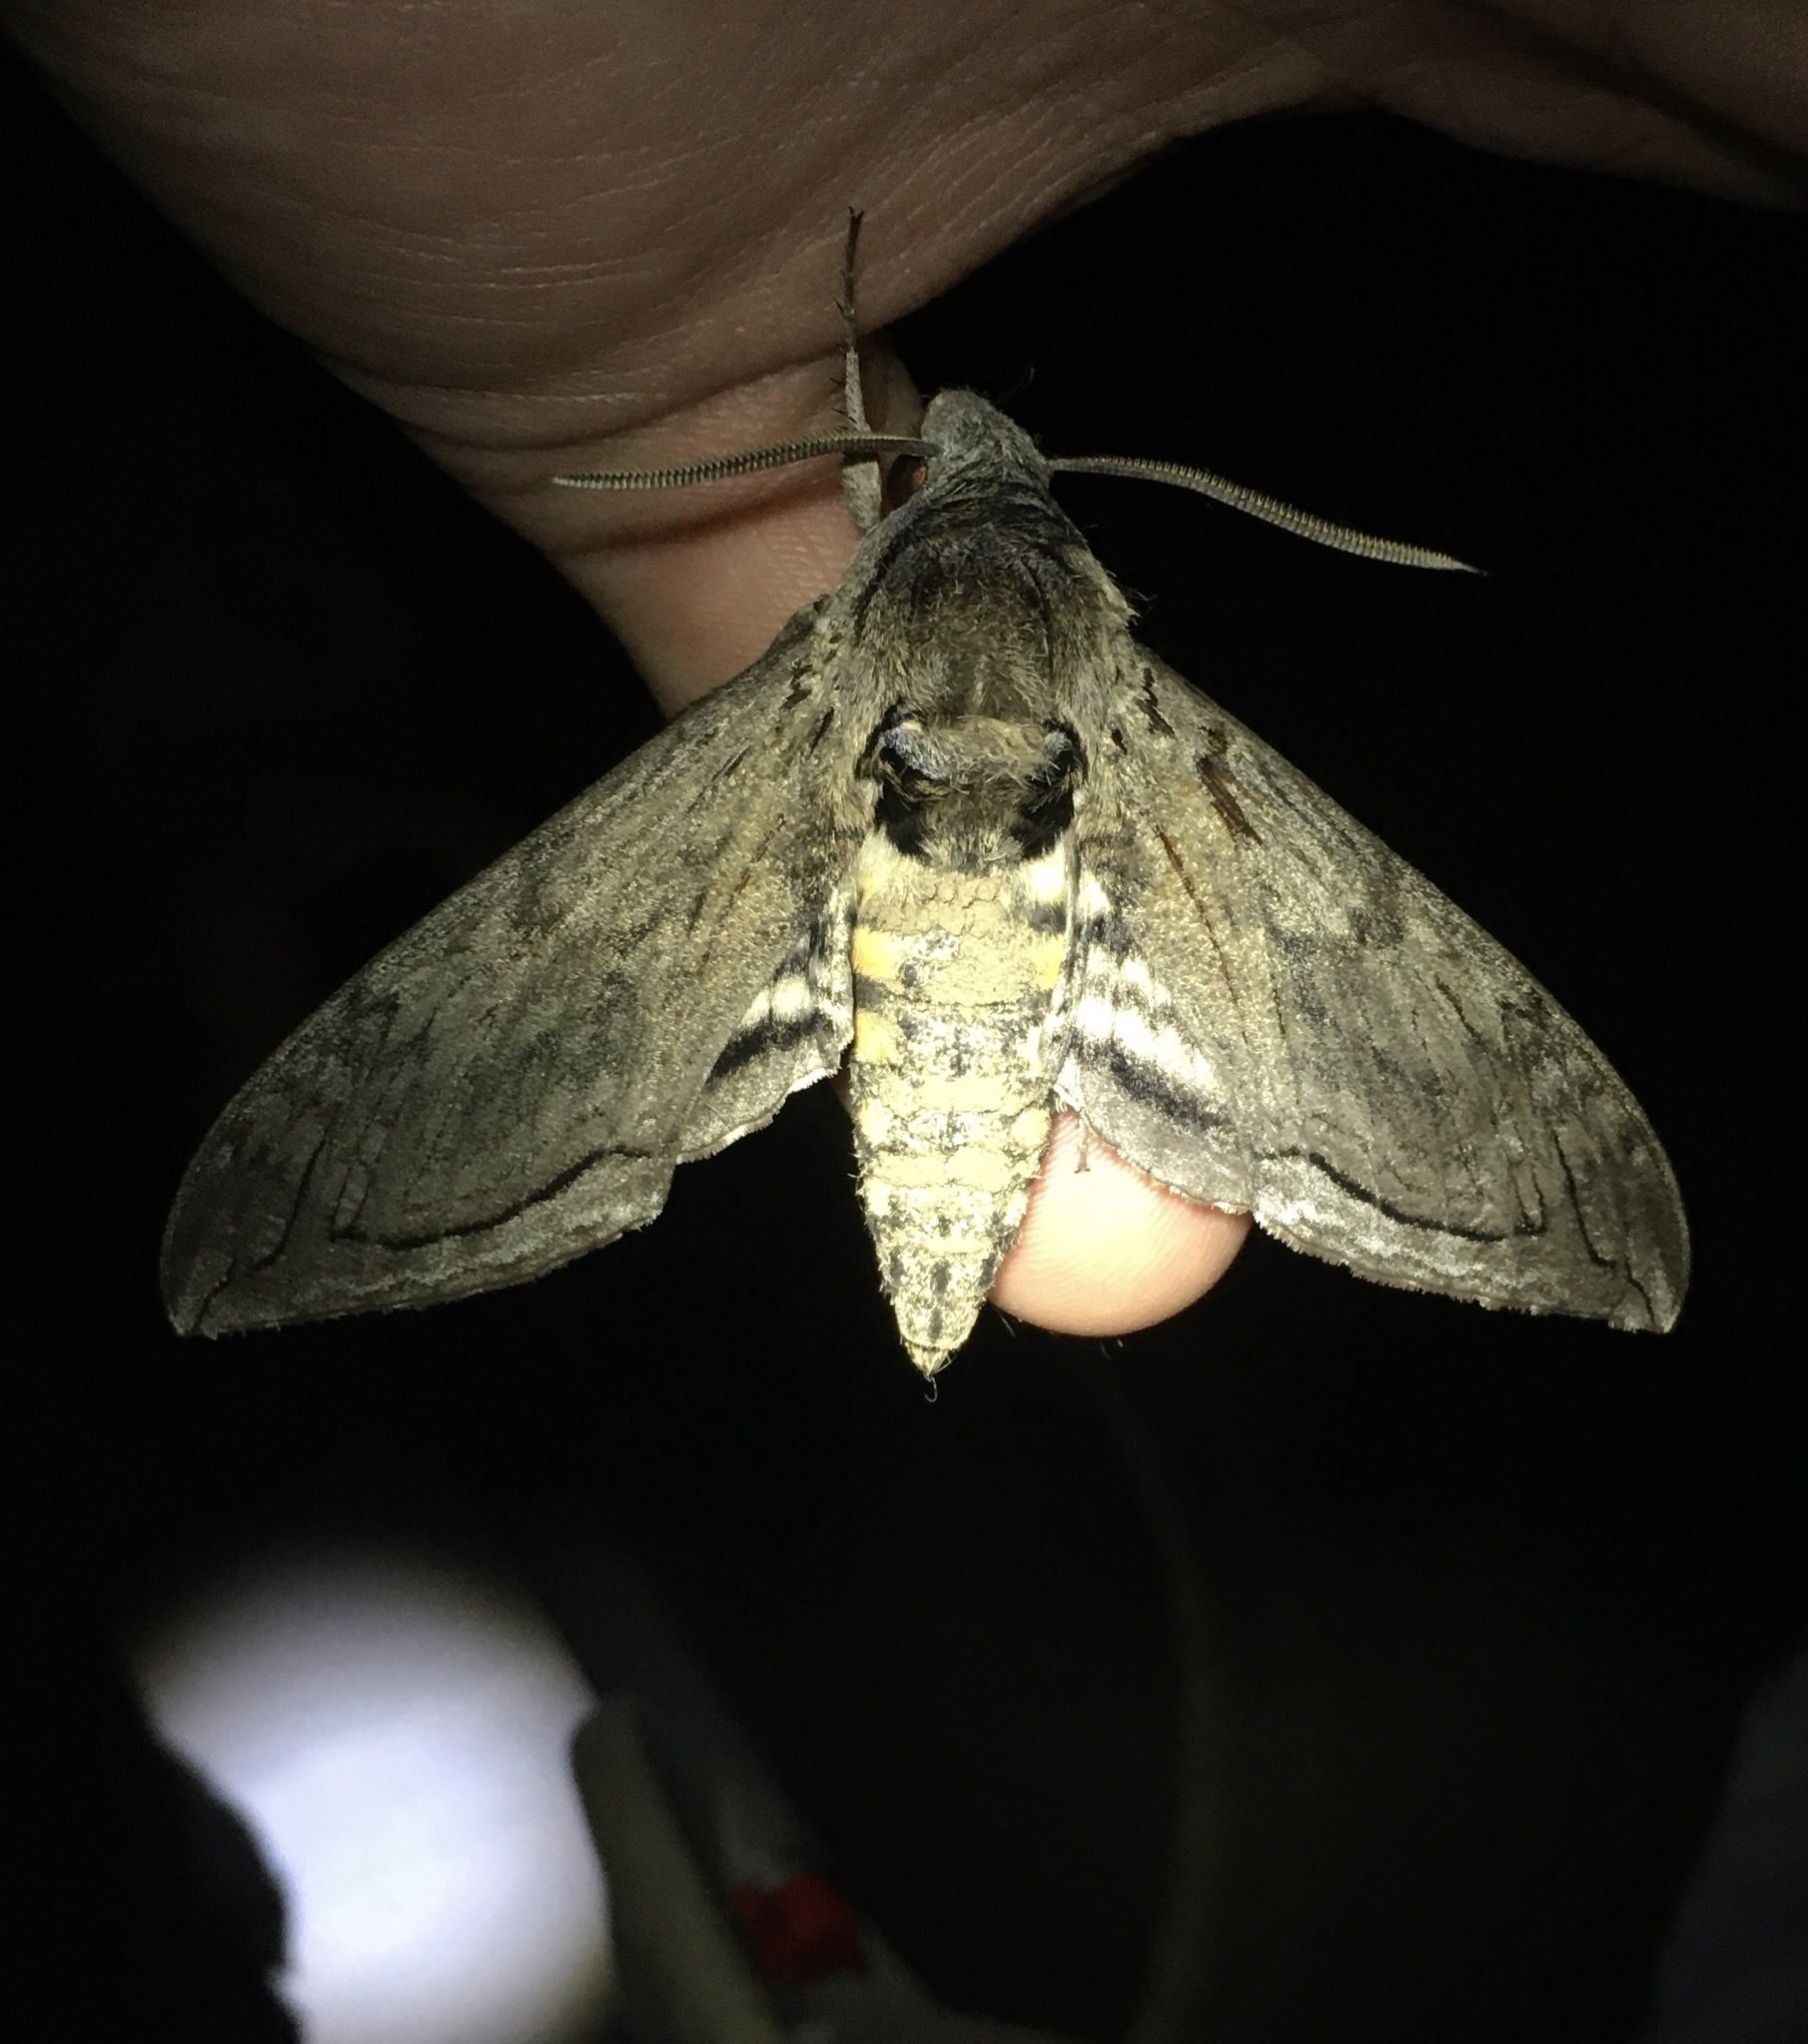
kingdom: Animalia
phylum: Arthropoda
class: Insecta
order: Lepidoptera
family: Sphingidae
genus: Manduca
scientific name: Manduca quinquemaculatus
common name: Five-spotted hawk-moth
